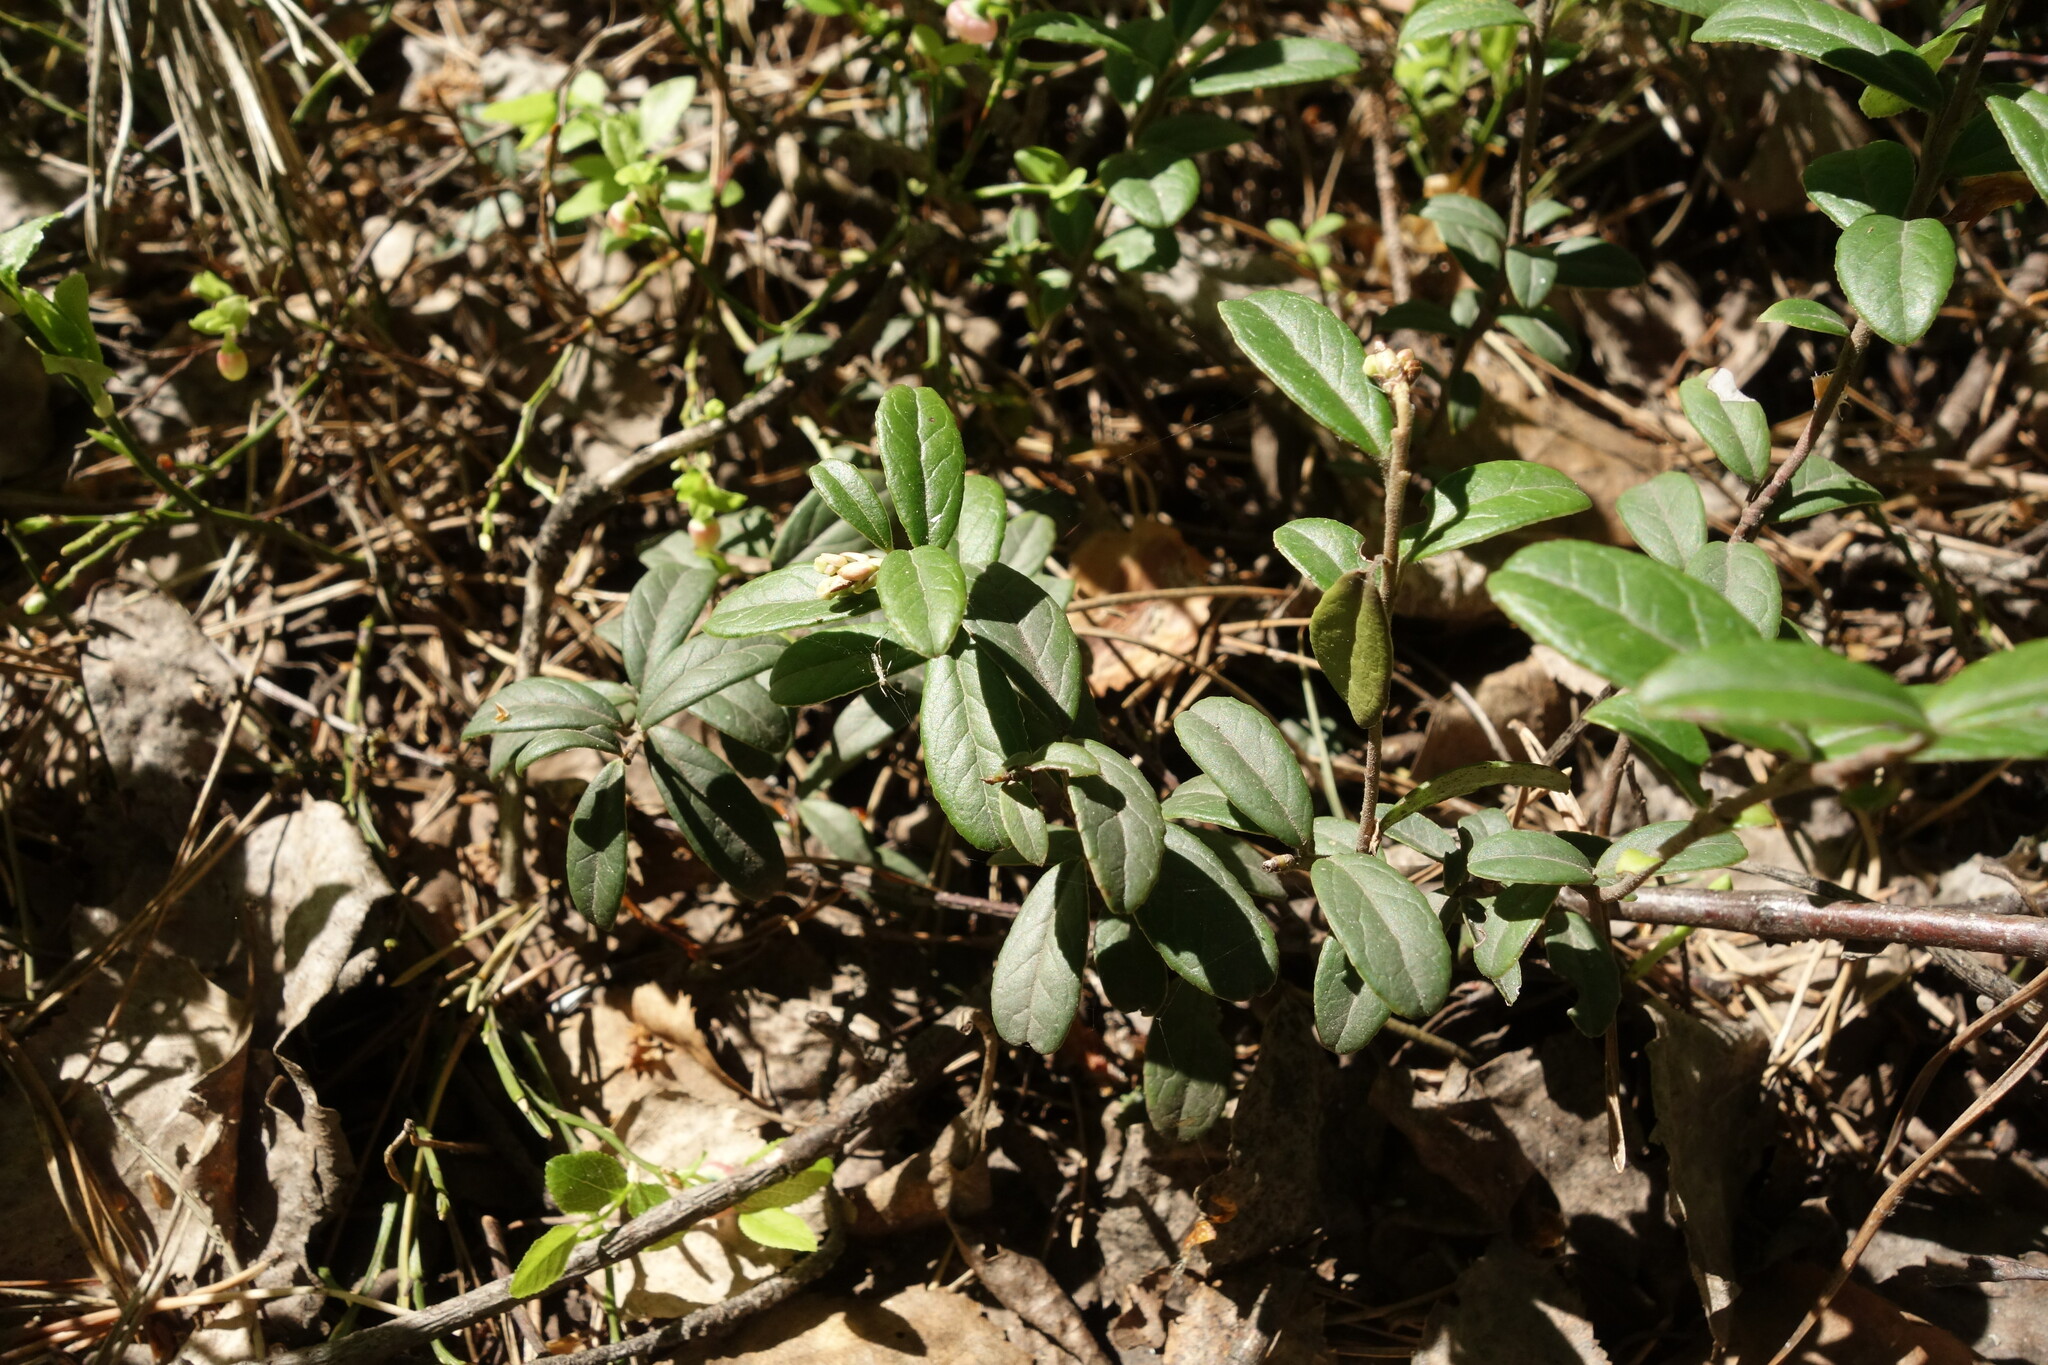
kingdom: Plantae
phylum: Tracheophyta
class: Magnoliopsida
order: Ericales
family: Ericaceae
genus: Vaccinium
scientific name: Vaccinium vitis-idaea
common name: Cowberry
